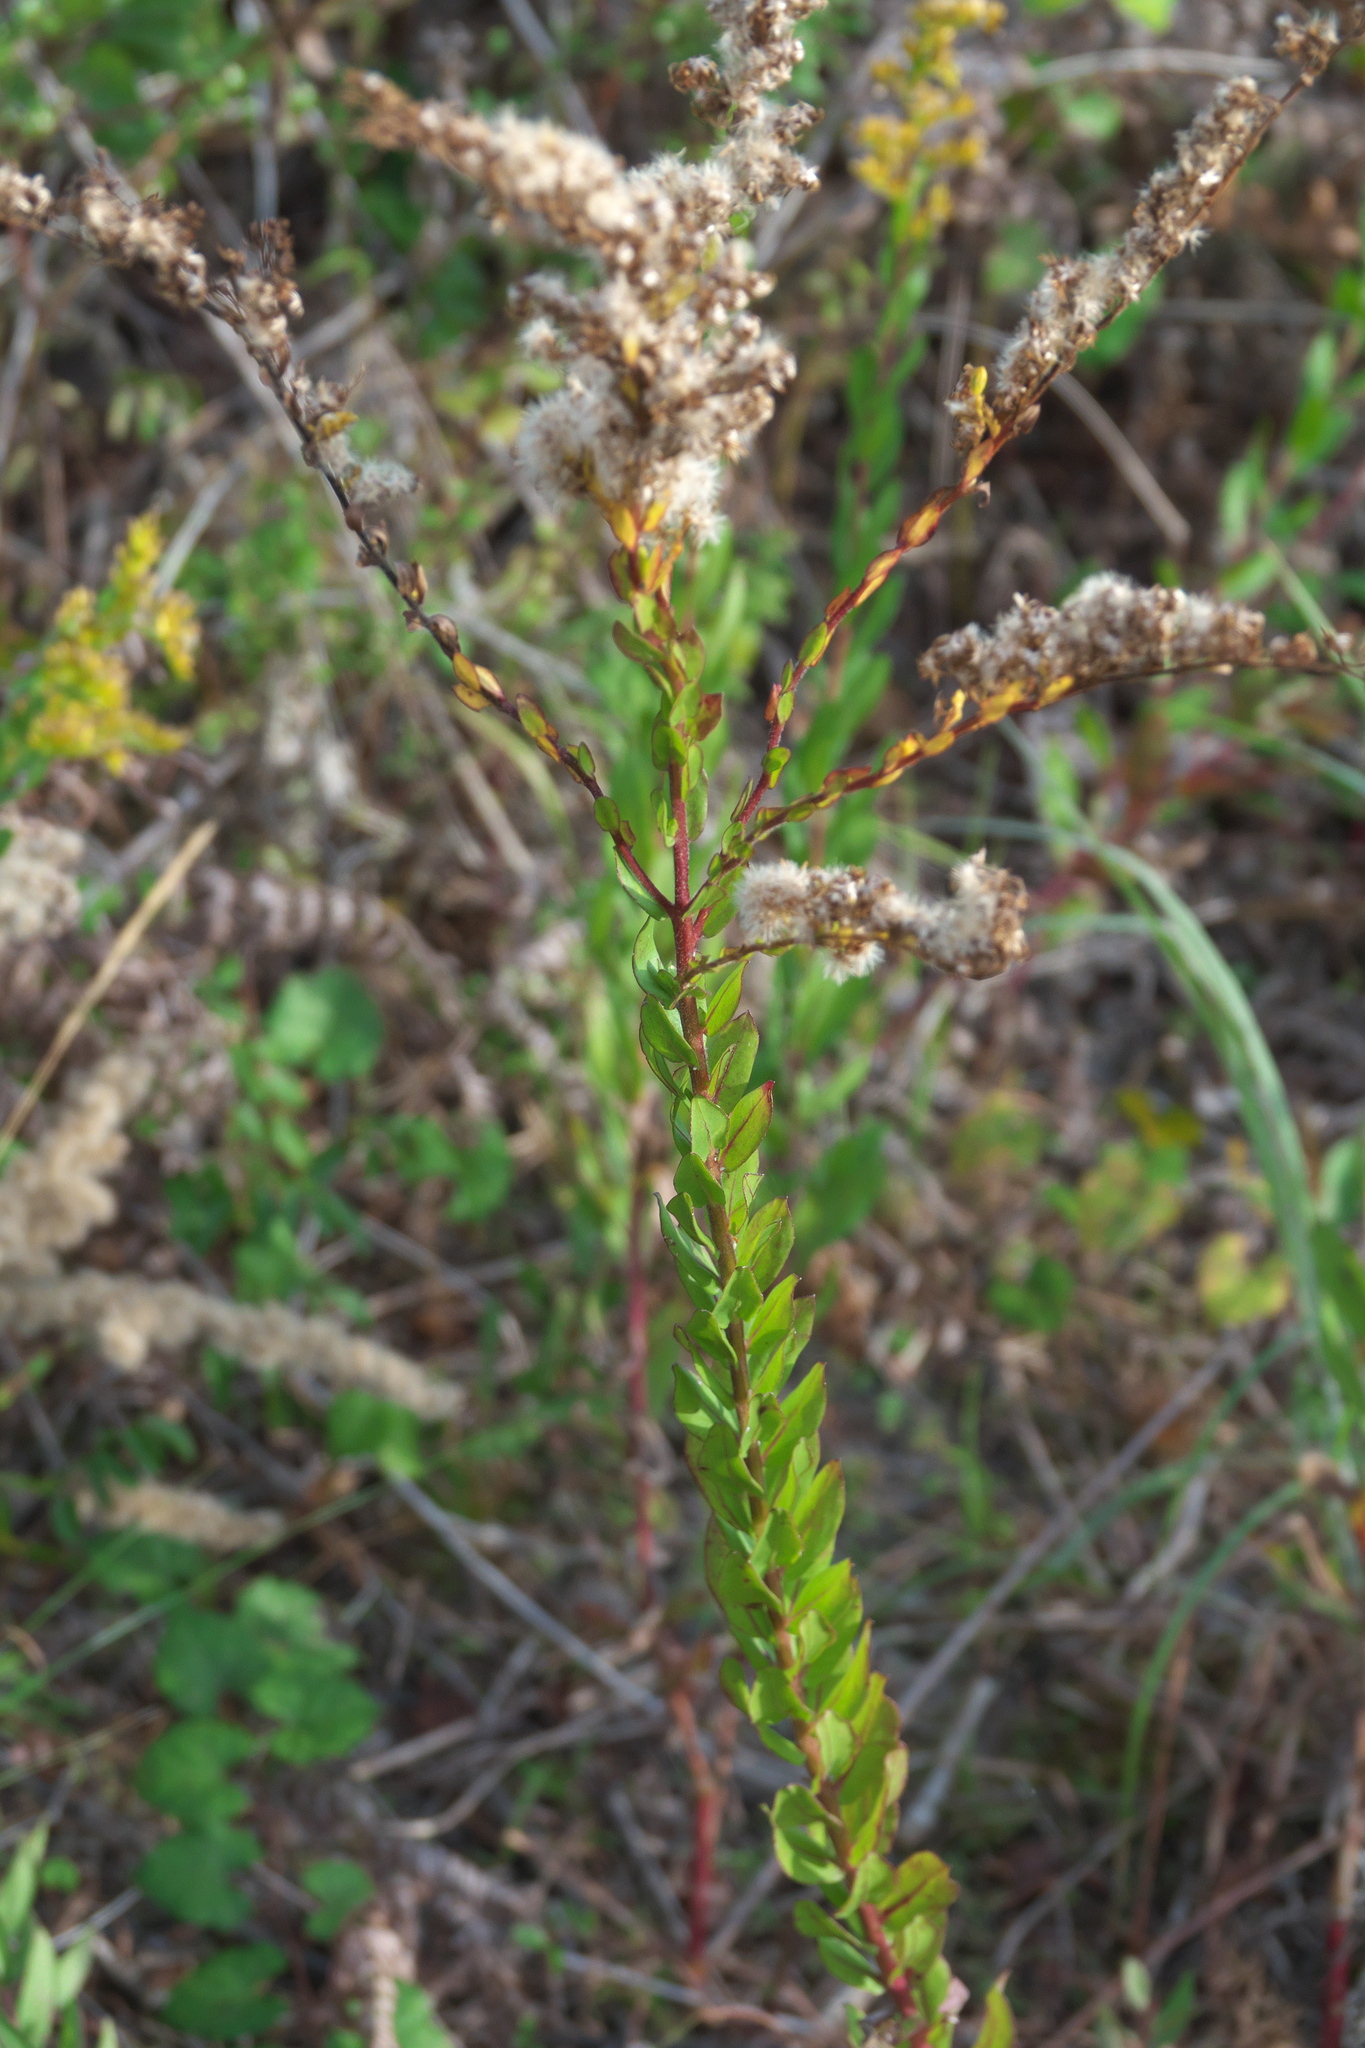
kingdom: Plantae
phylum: Tracheophyta
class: Magnoliopsida
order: Asterales
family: Asteraceae
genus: Solidago
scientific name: Solidago fistulosa
